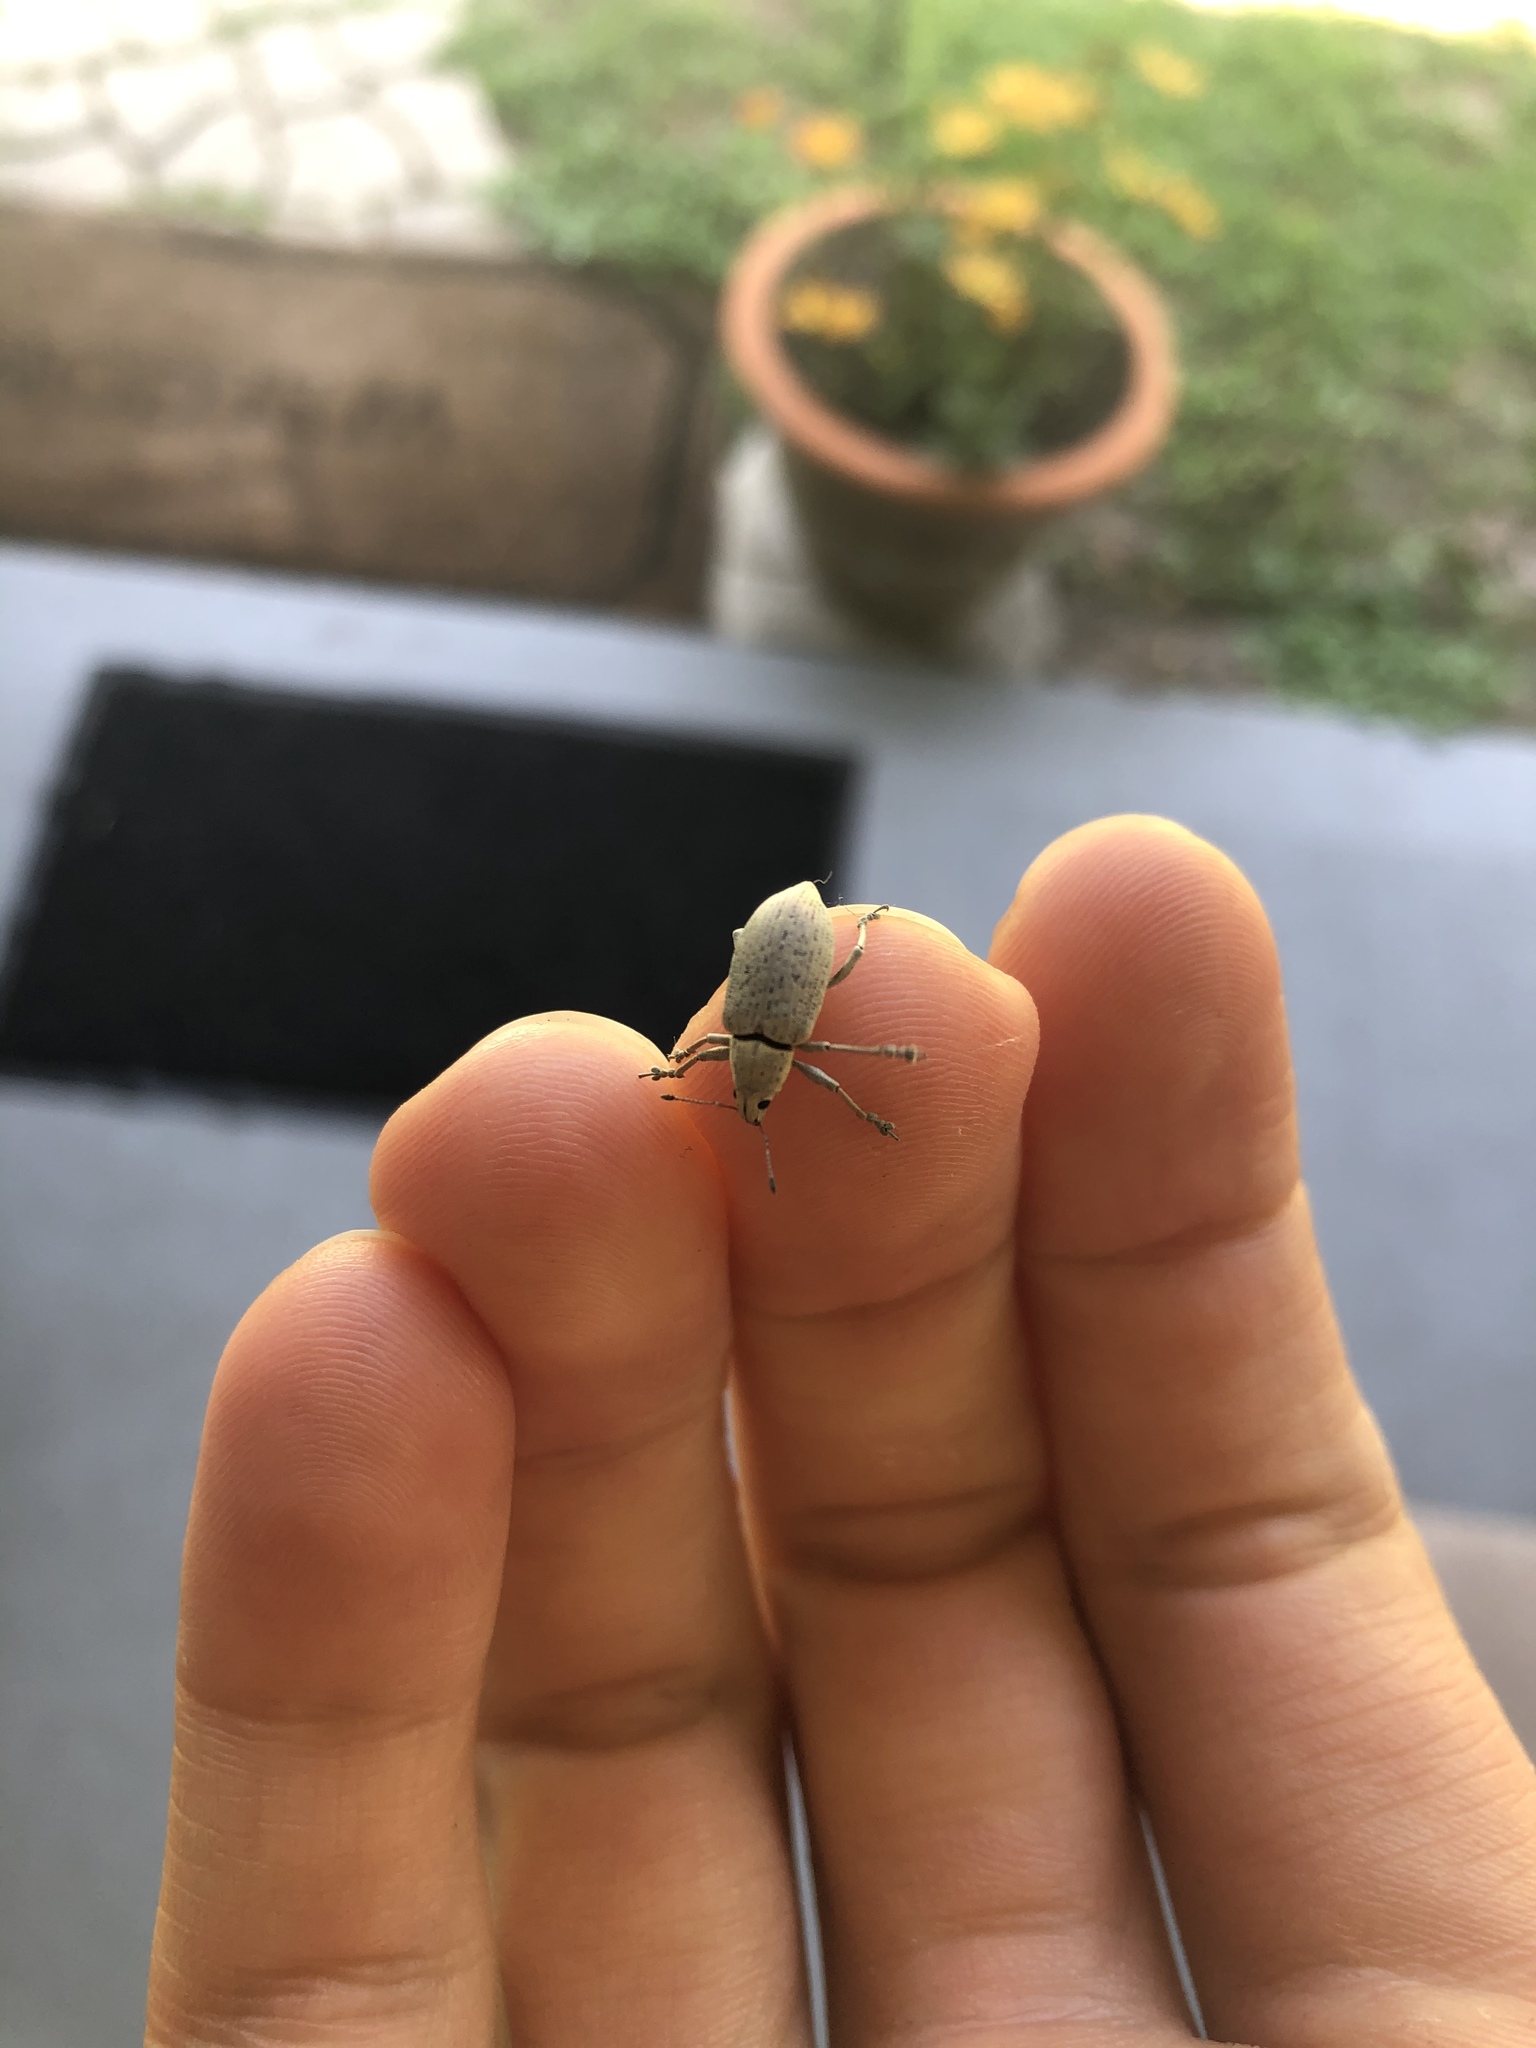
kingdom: Animalia
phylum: Arthropoda
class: Insecta
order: Coleoptera
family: Curculionidae
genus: Pachnaeus
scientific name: Pachnaeus opalus
